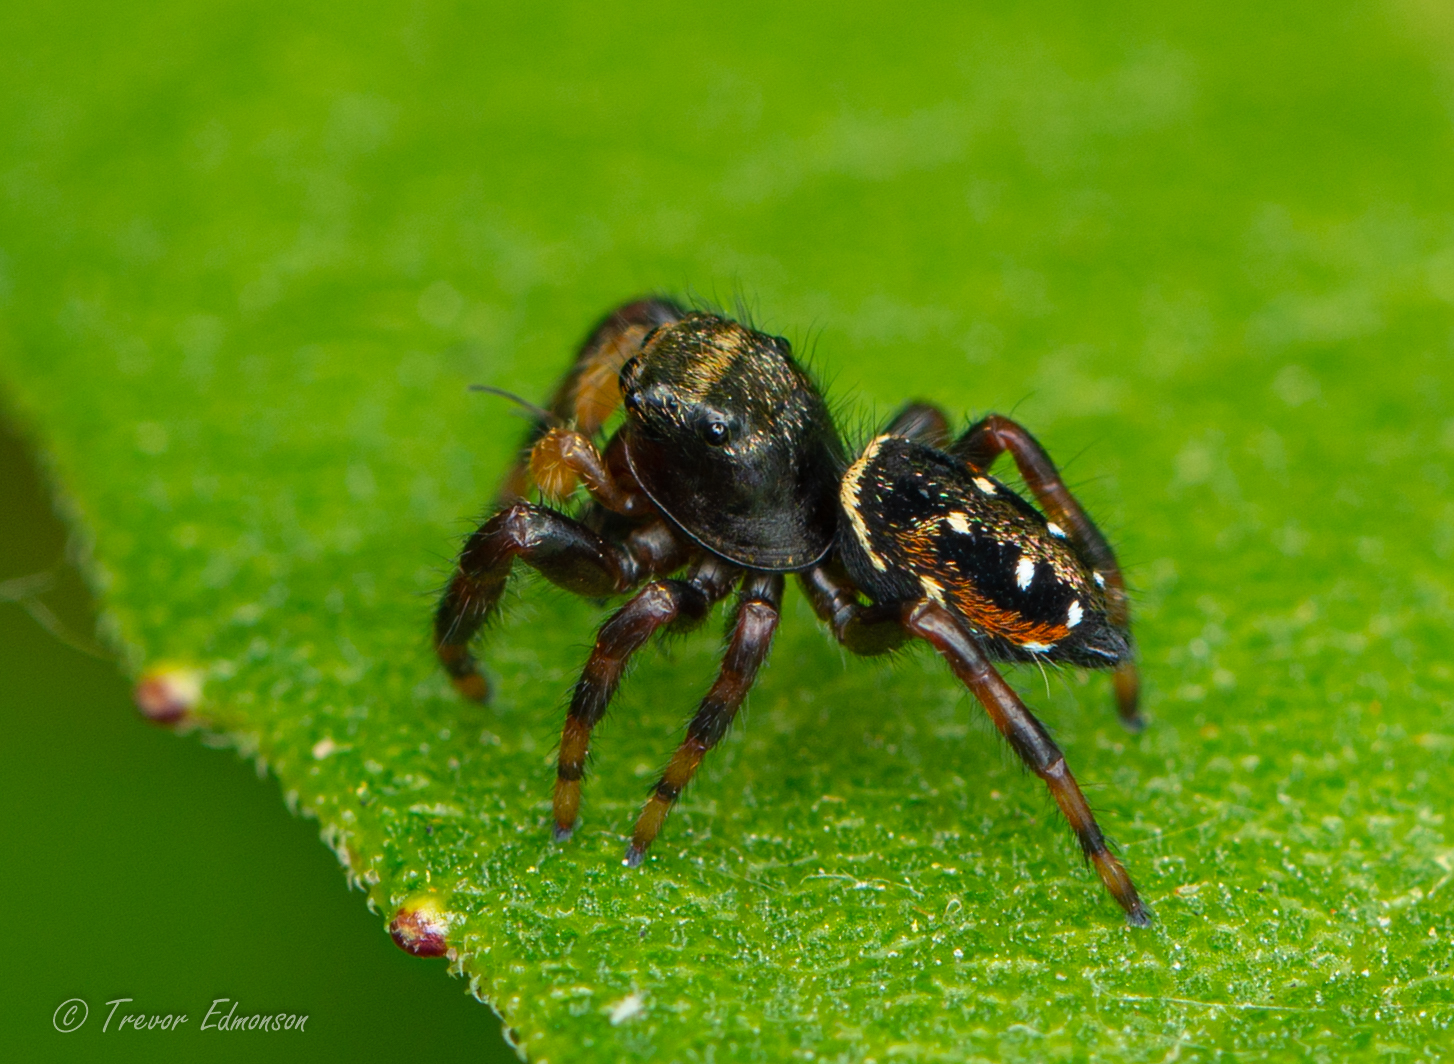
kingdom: Animalia
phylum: Arthropoda
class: Arachnida
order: Araneae
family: Salticidae
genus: Phidippus
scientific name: Phidippus clarus
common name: Brilliant jumping spider
